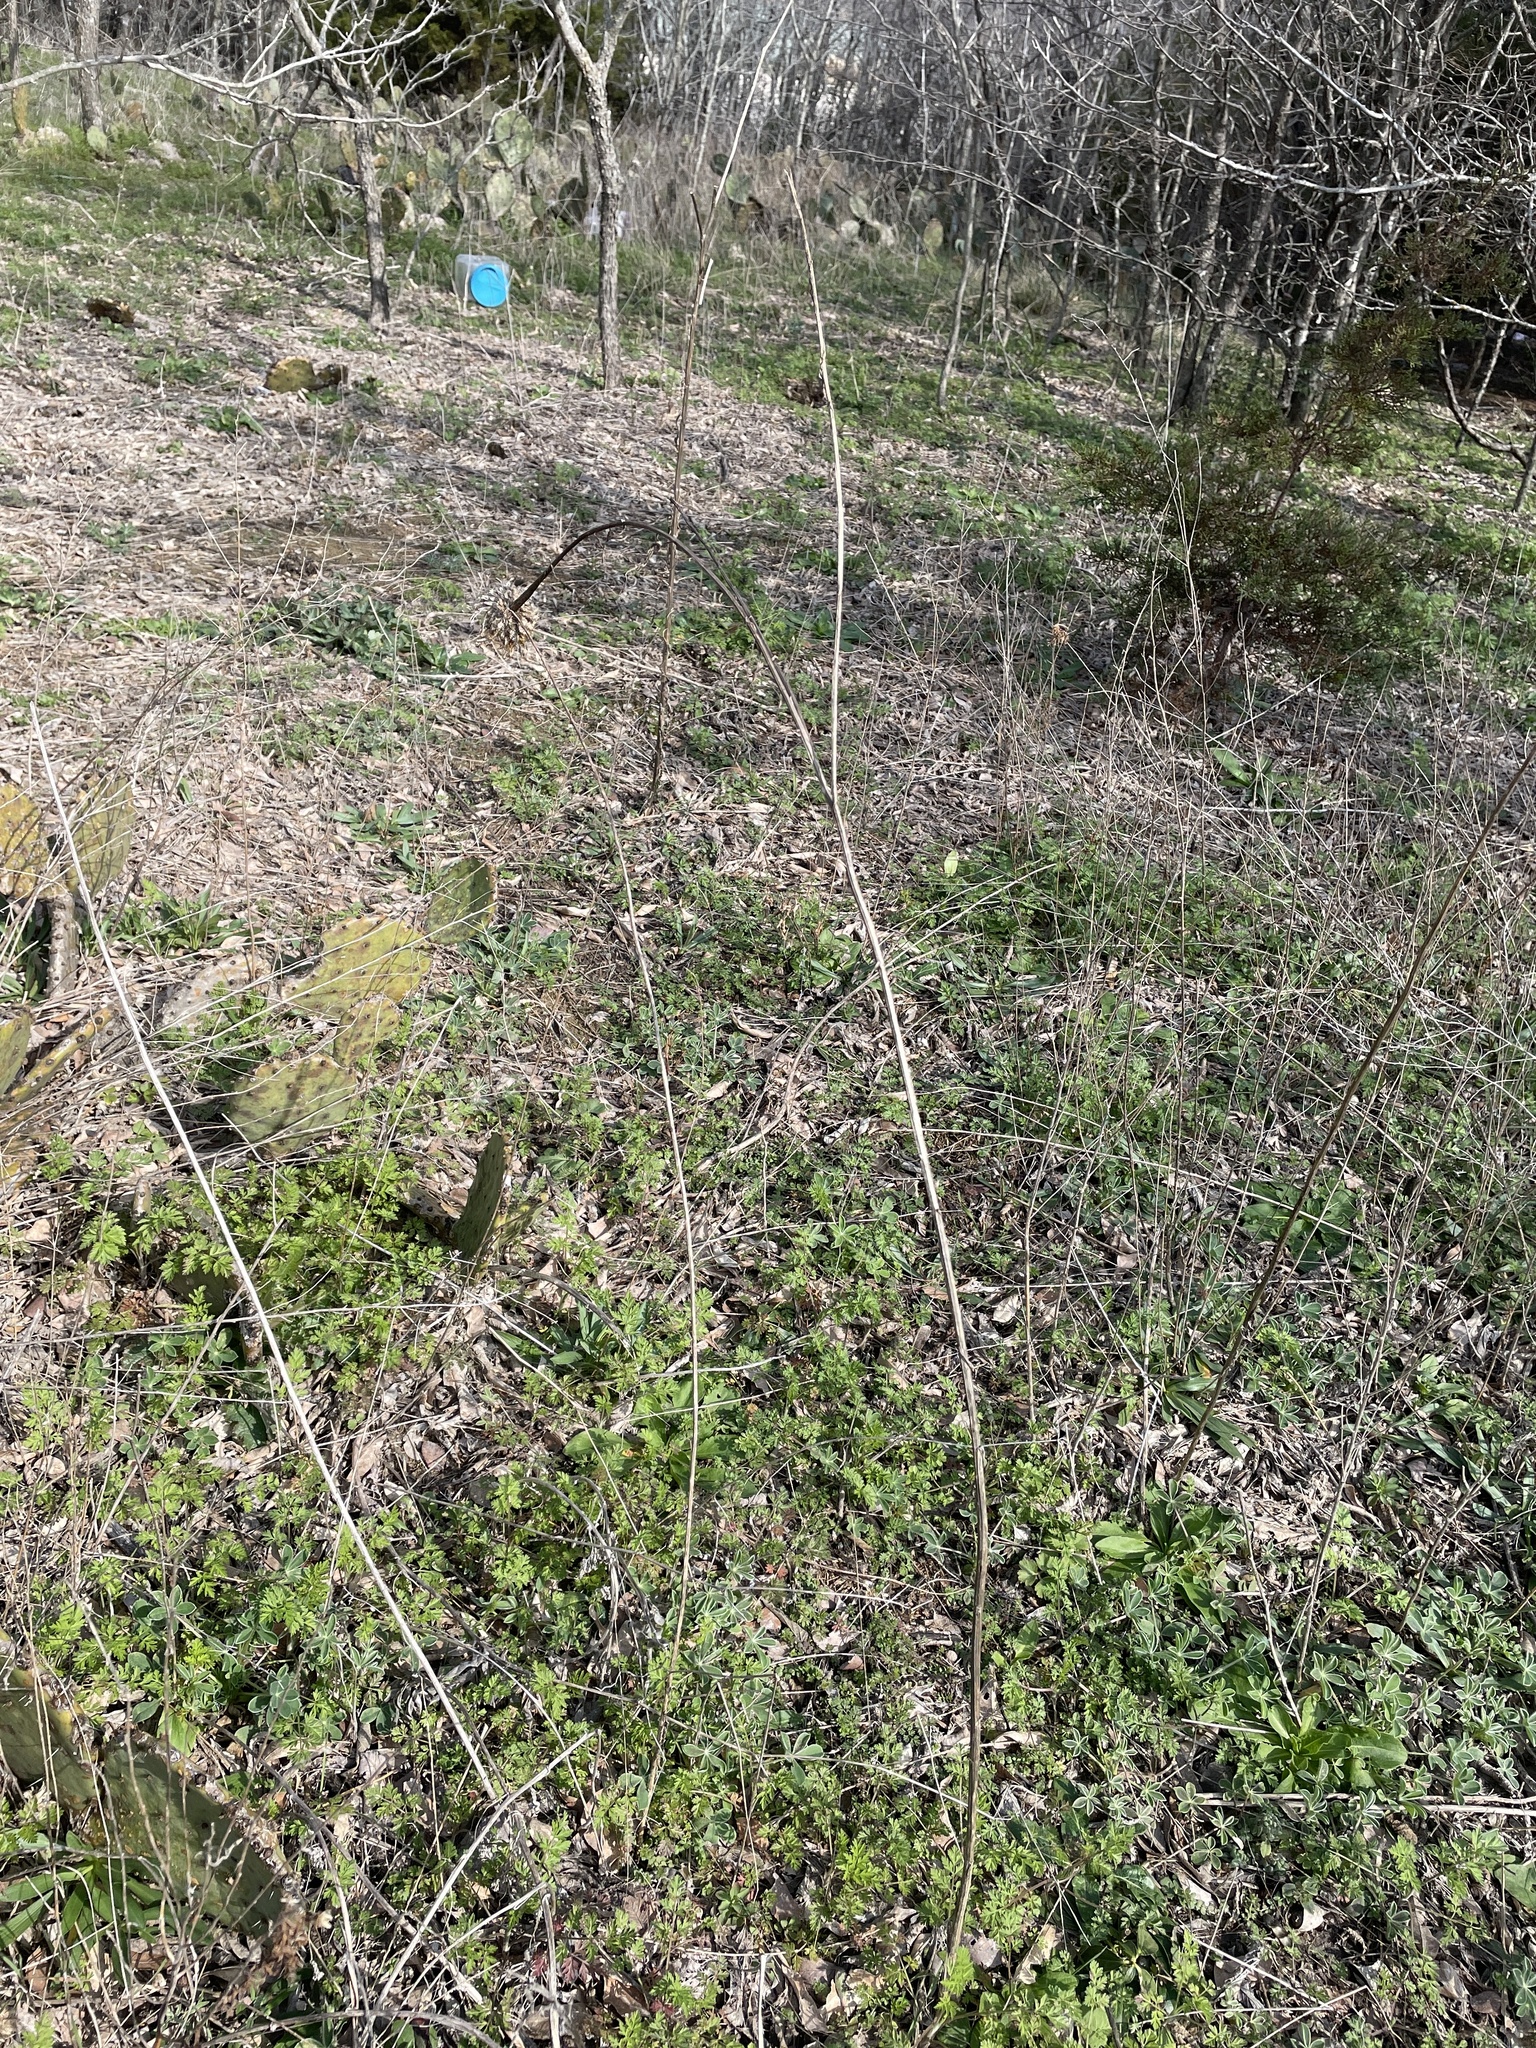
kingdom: Plantae
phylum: Tracheophyta
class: Magnoliopsida
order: Asterales
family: Asteraceae
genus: Plectocephalus
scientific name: Plectocephalus americanus
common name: American basket-flower
